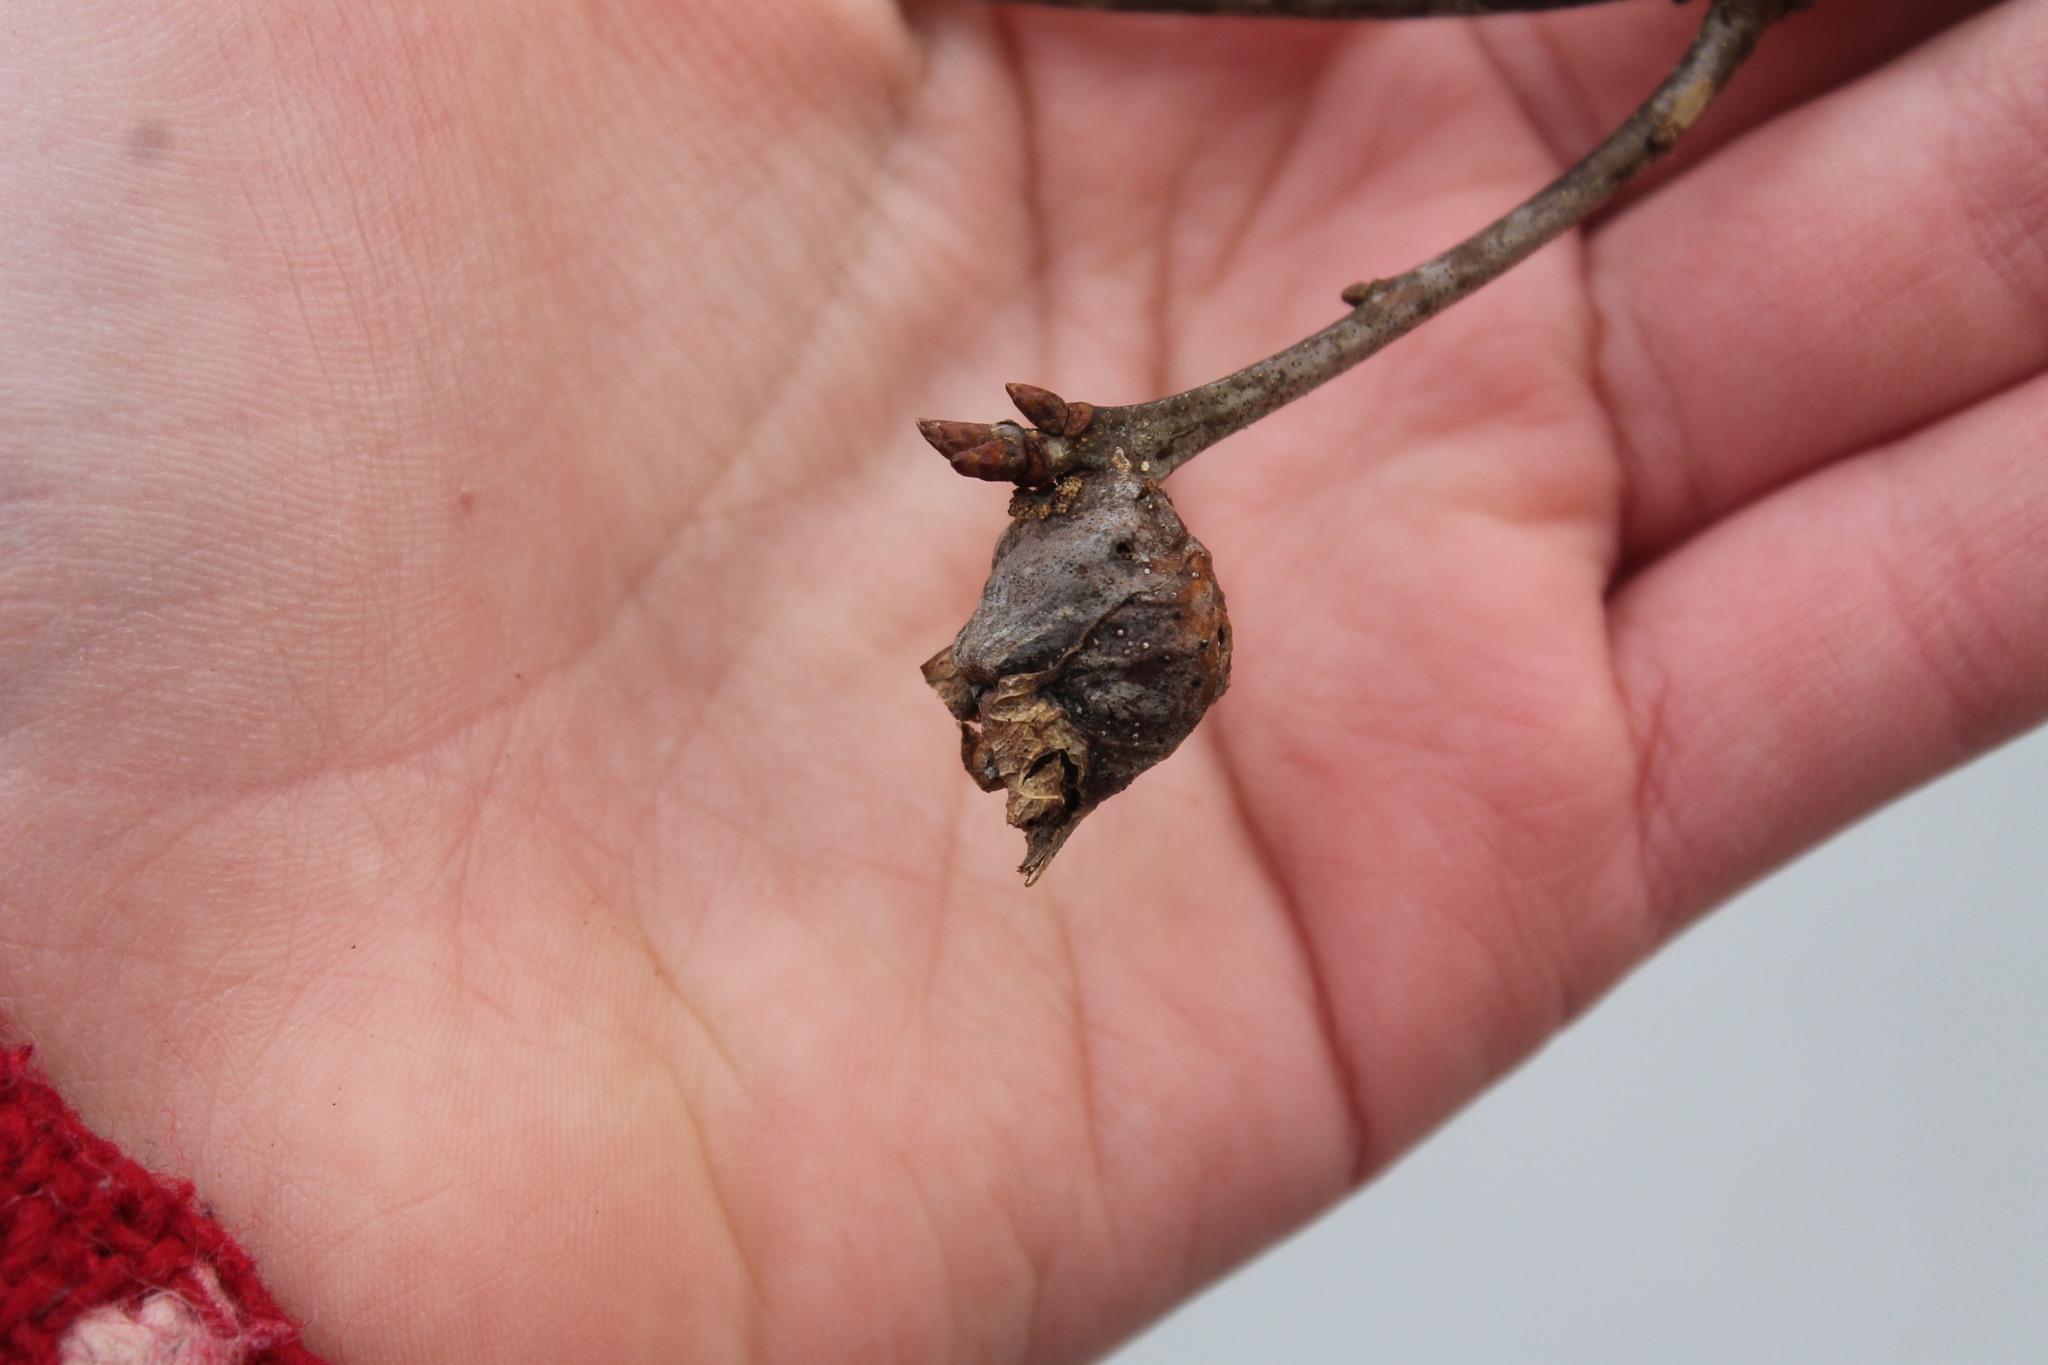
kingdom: Animalia
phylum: Arthropoda
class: Insecta
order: Hymenoptera
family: Cynipidae
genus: Andricus
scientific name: Andricus
